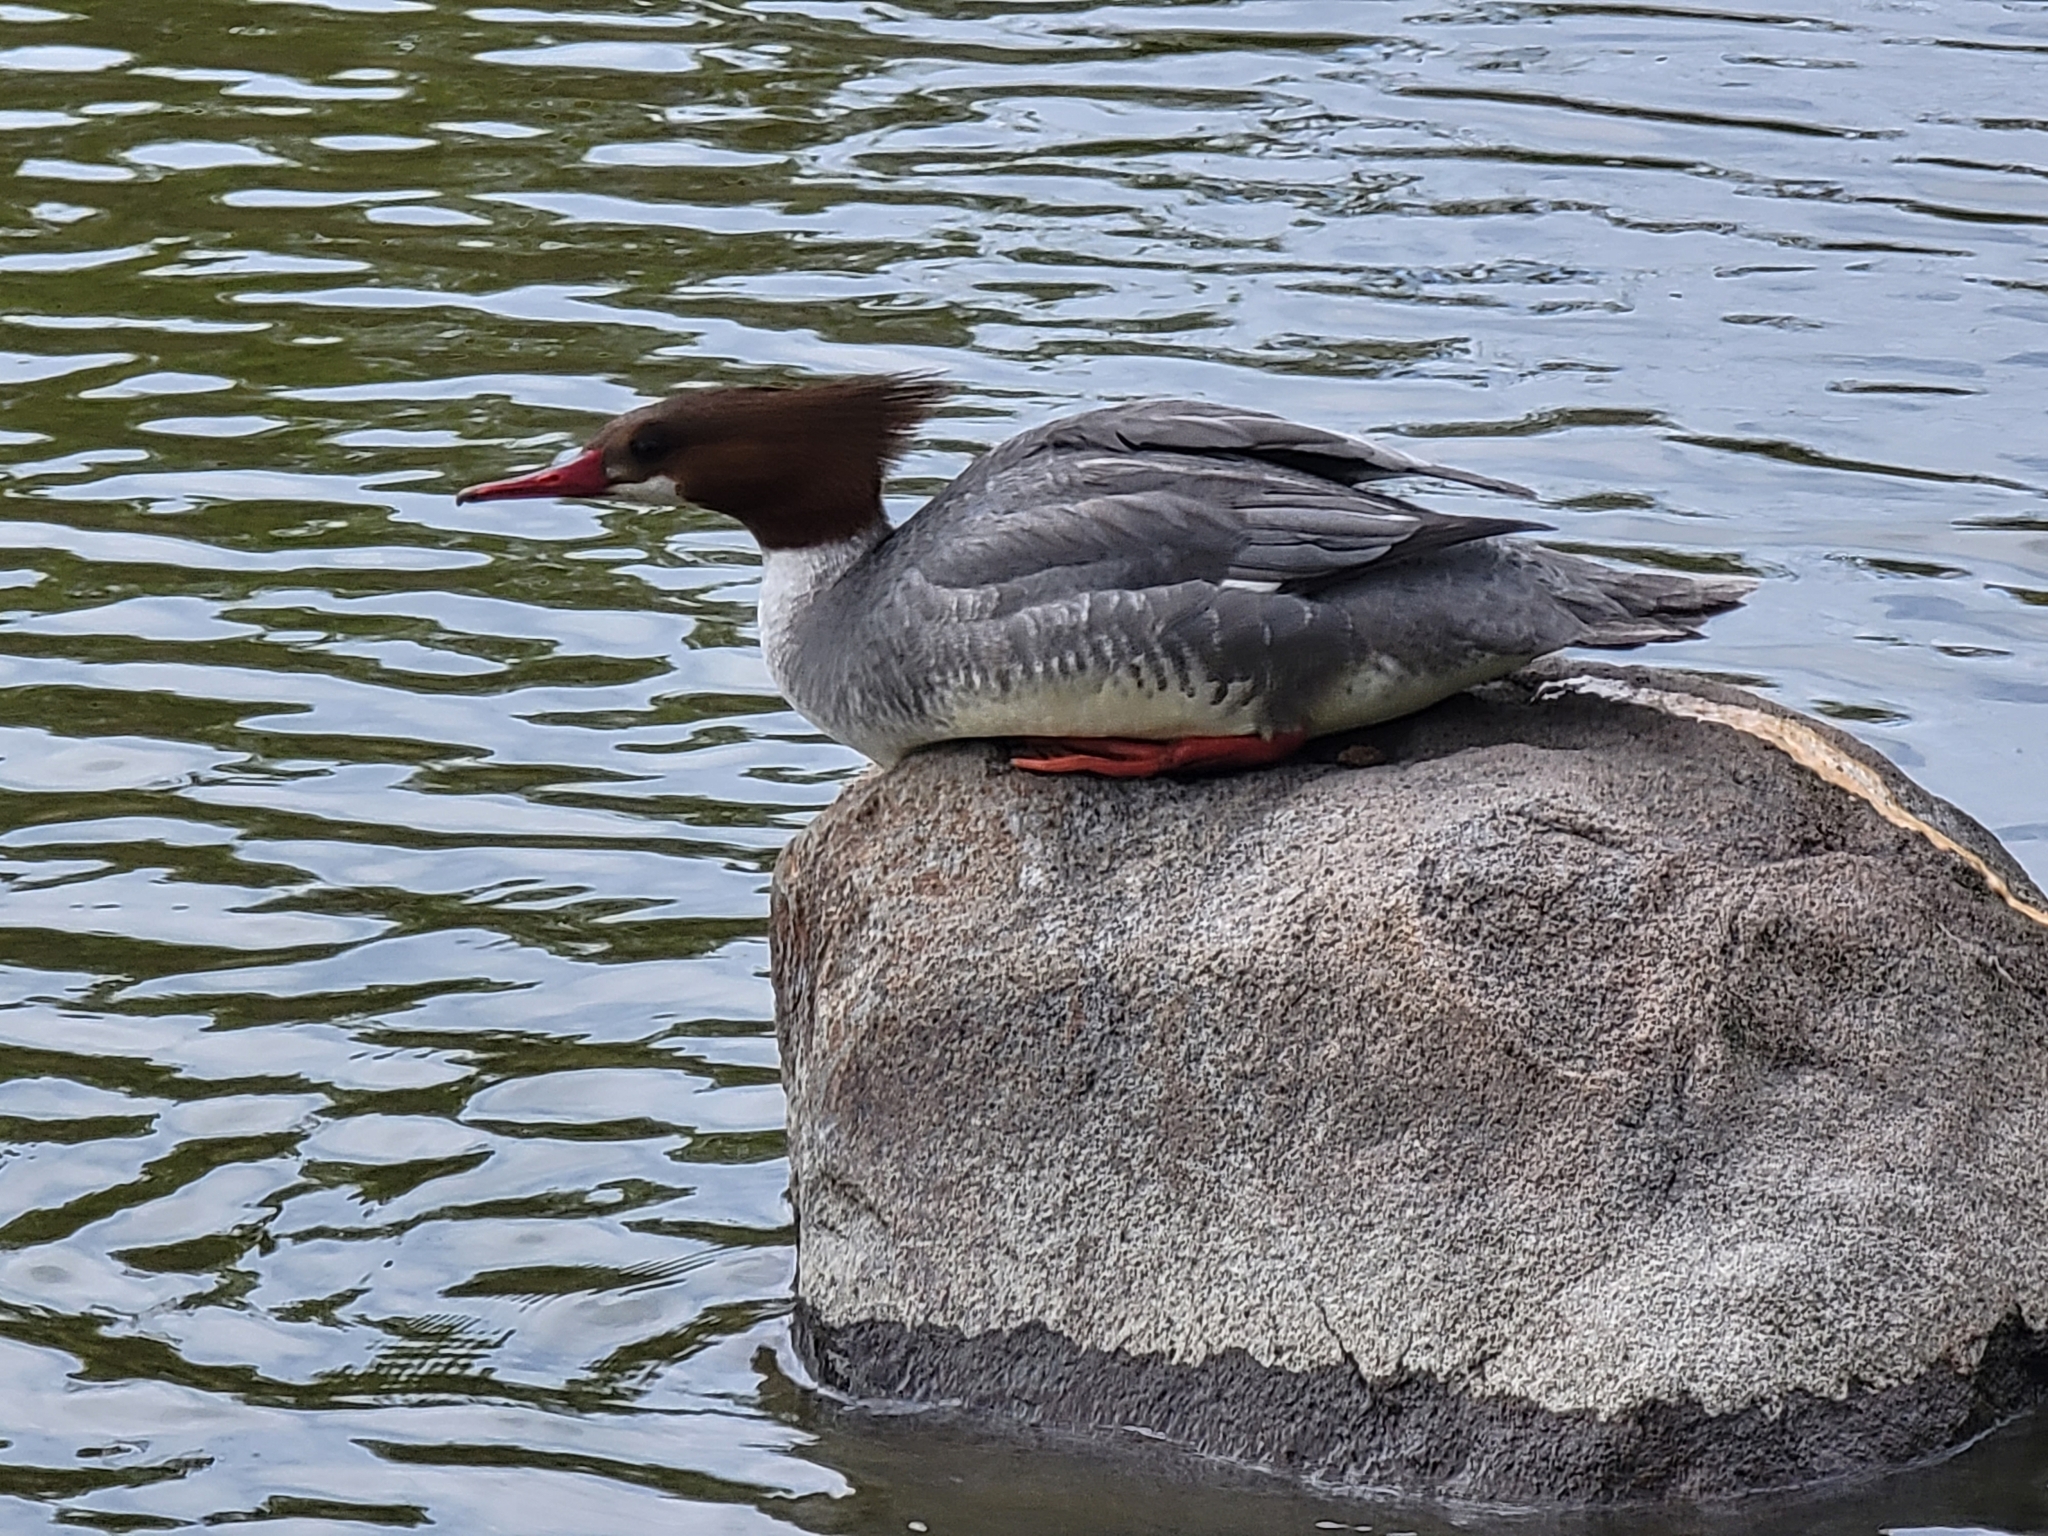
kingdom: Animalia
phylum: Chordata
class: Aves
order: Anseriformes
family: Anatidae
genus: Mergus
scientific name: Mergus merganser
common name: Common merganser
